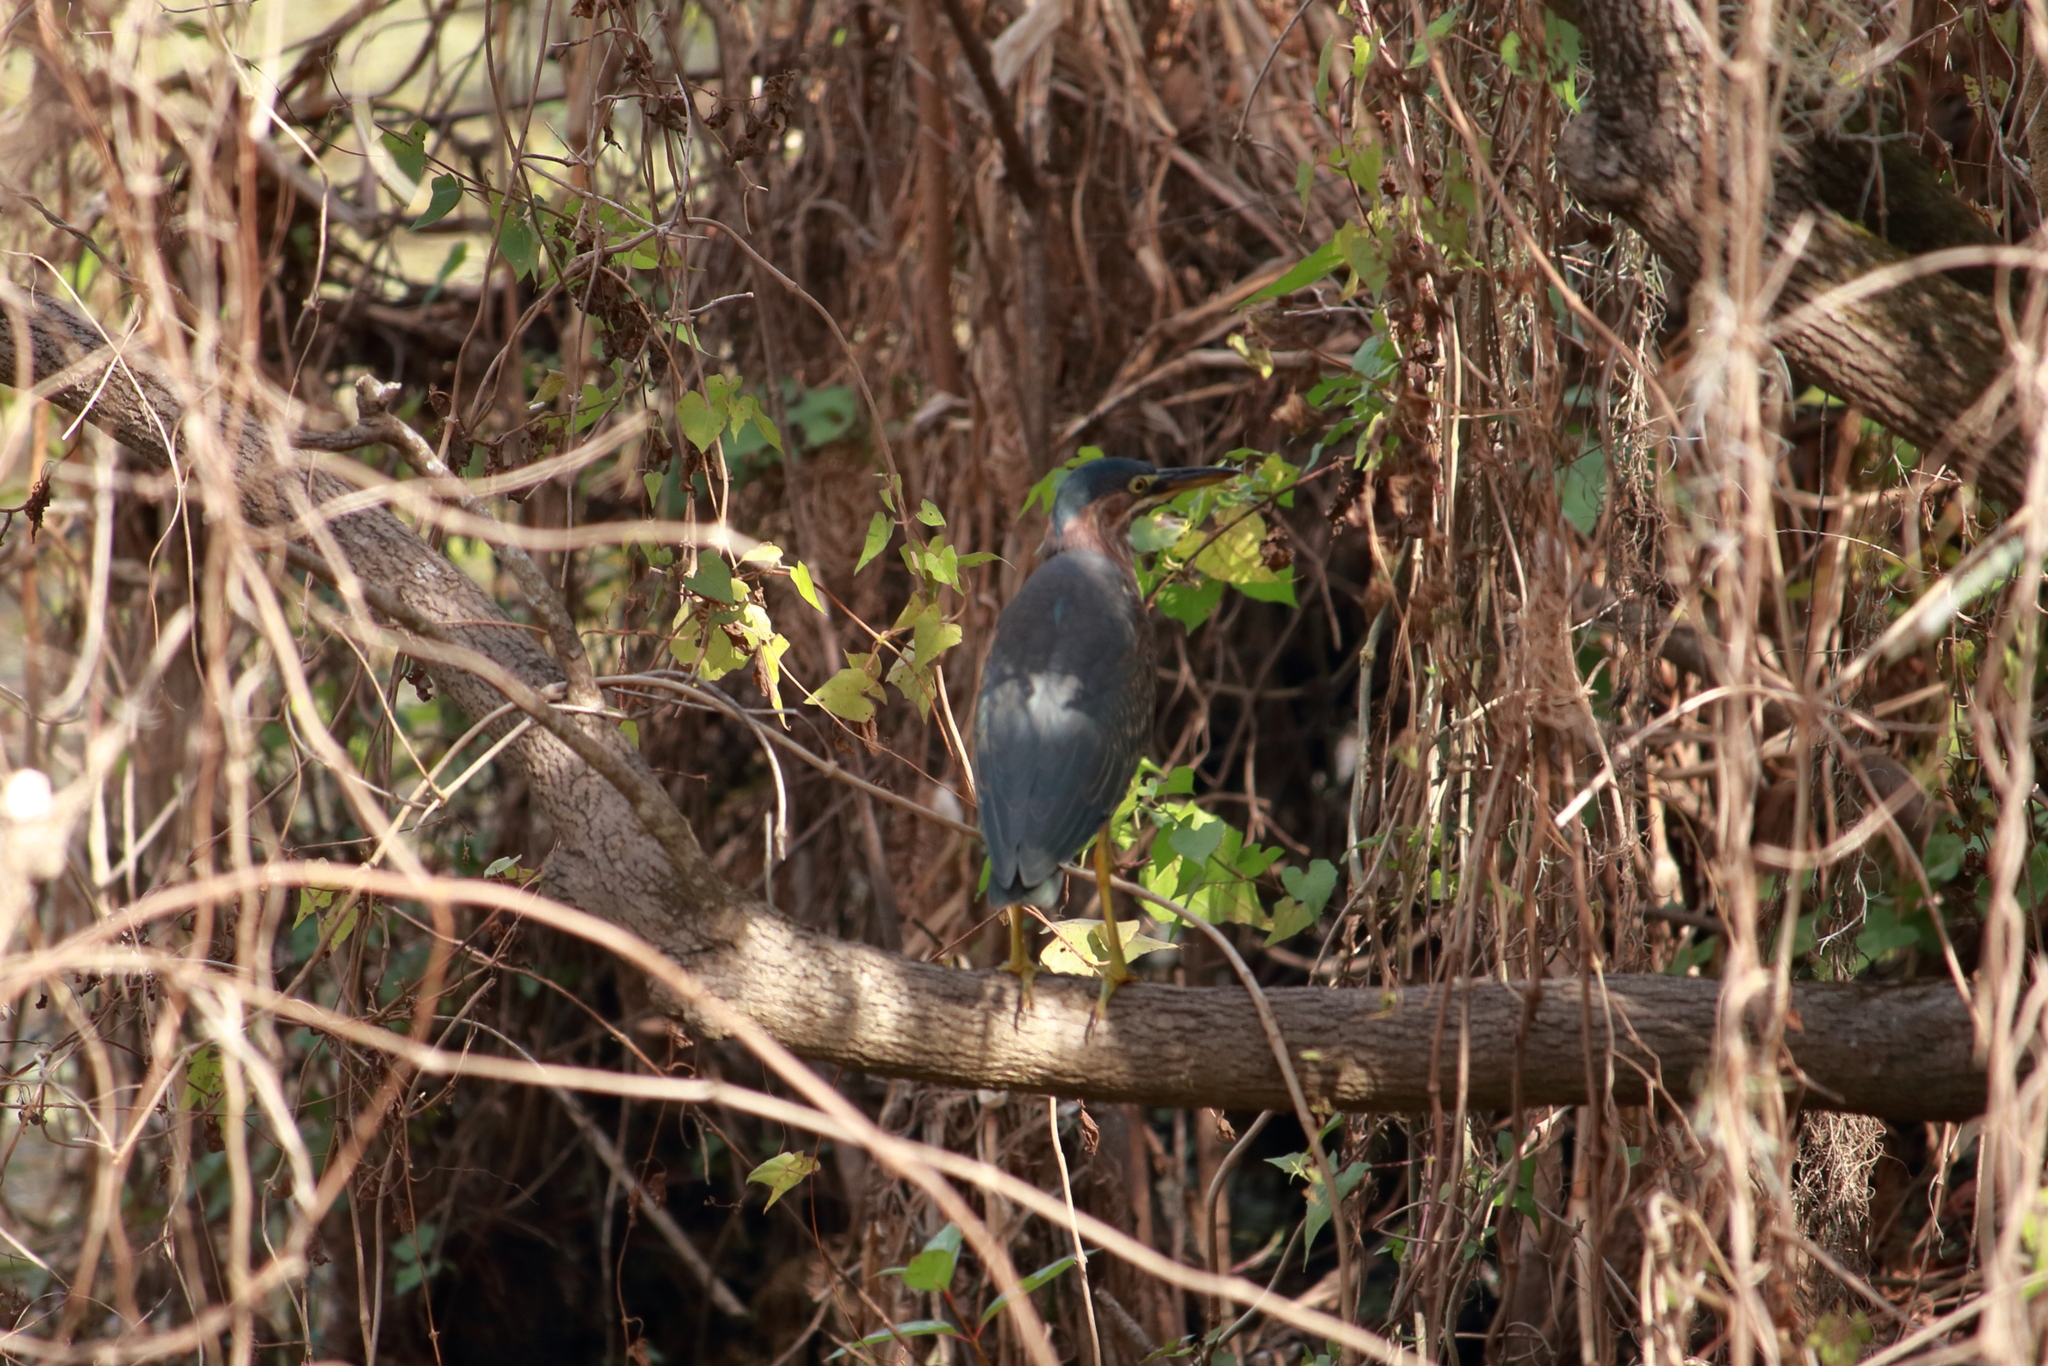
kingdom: Animalia
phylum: Chordata
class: Aves
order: Pelecaniformes
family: Ardeidae
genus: Butorides
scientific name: Butorides virescens
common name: Green heron
